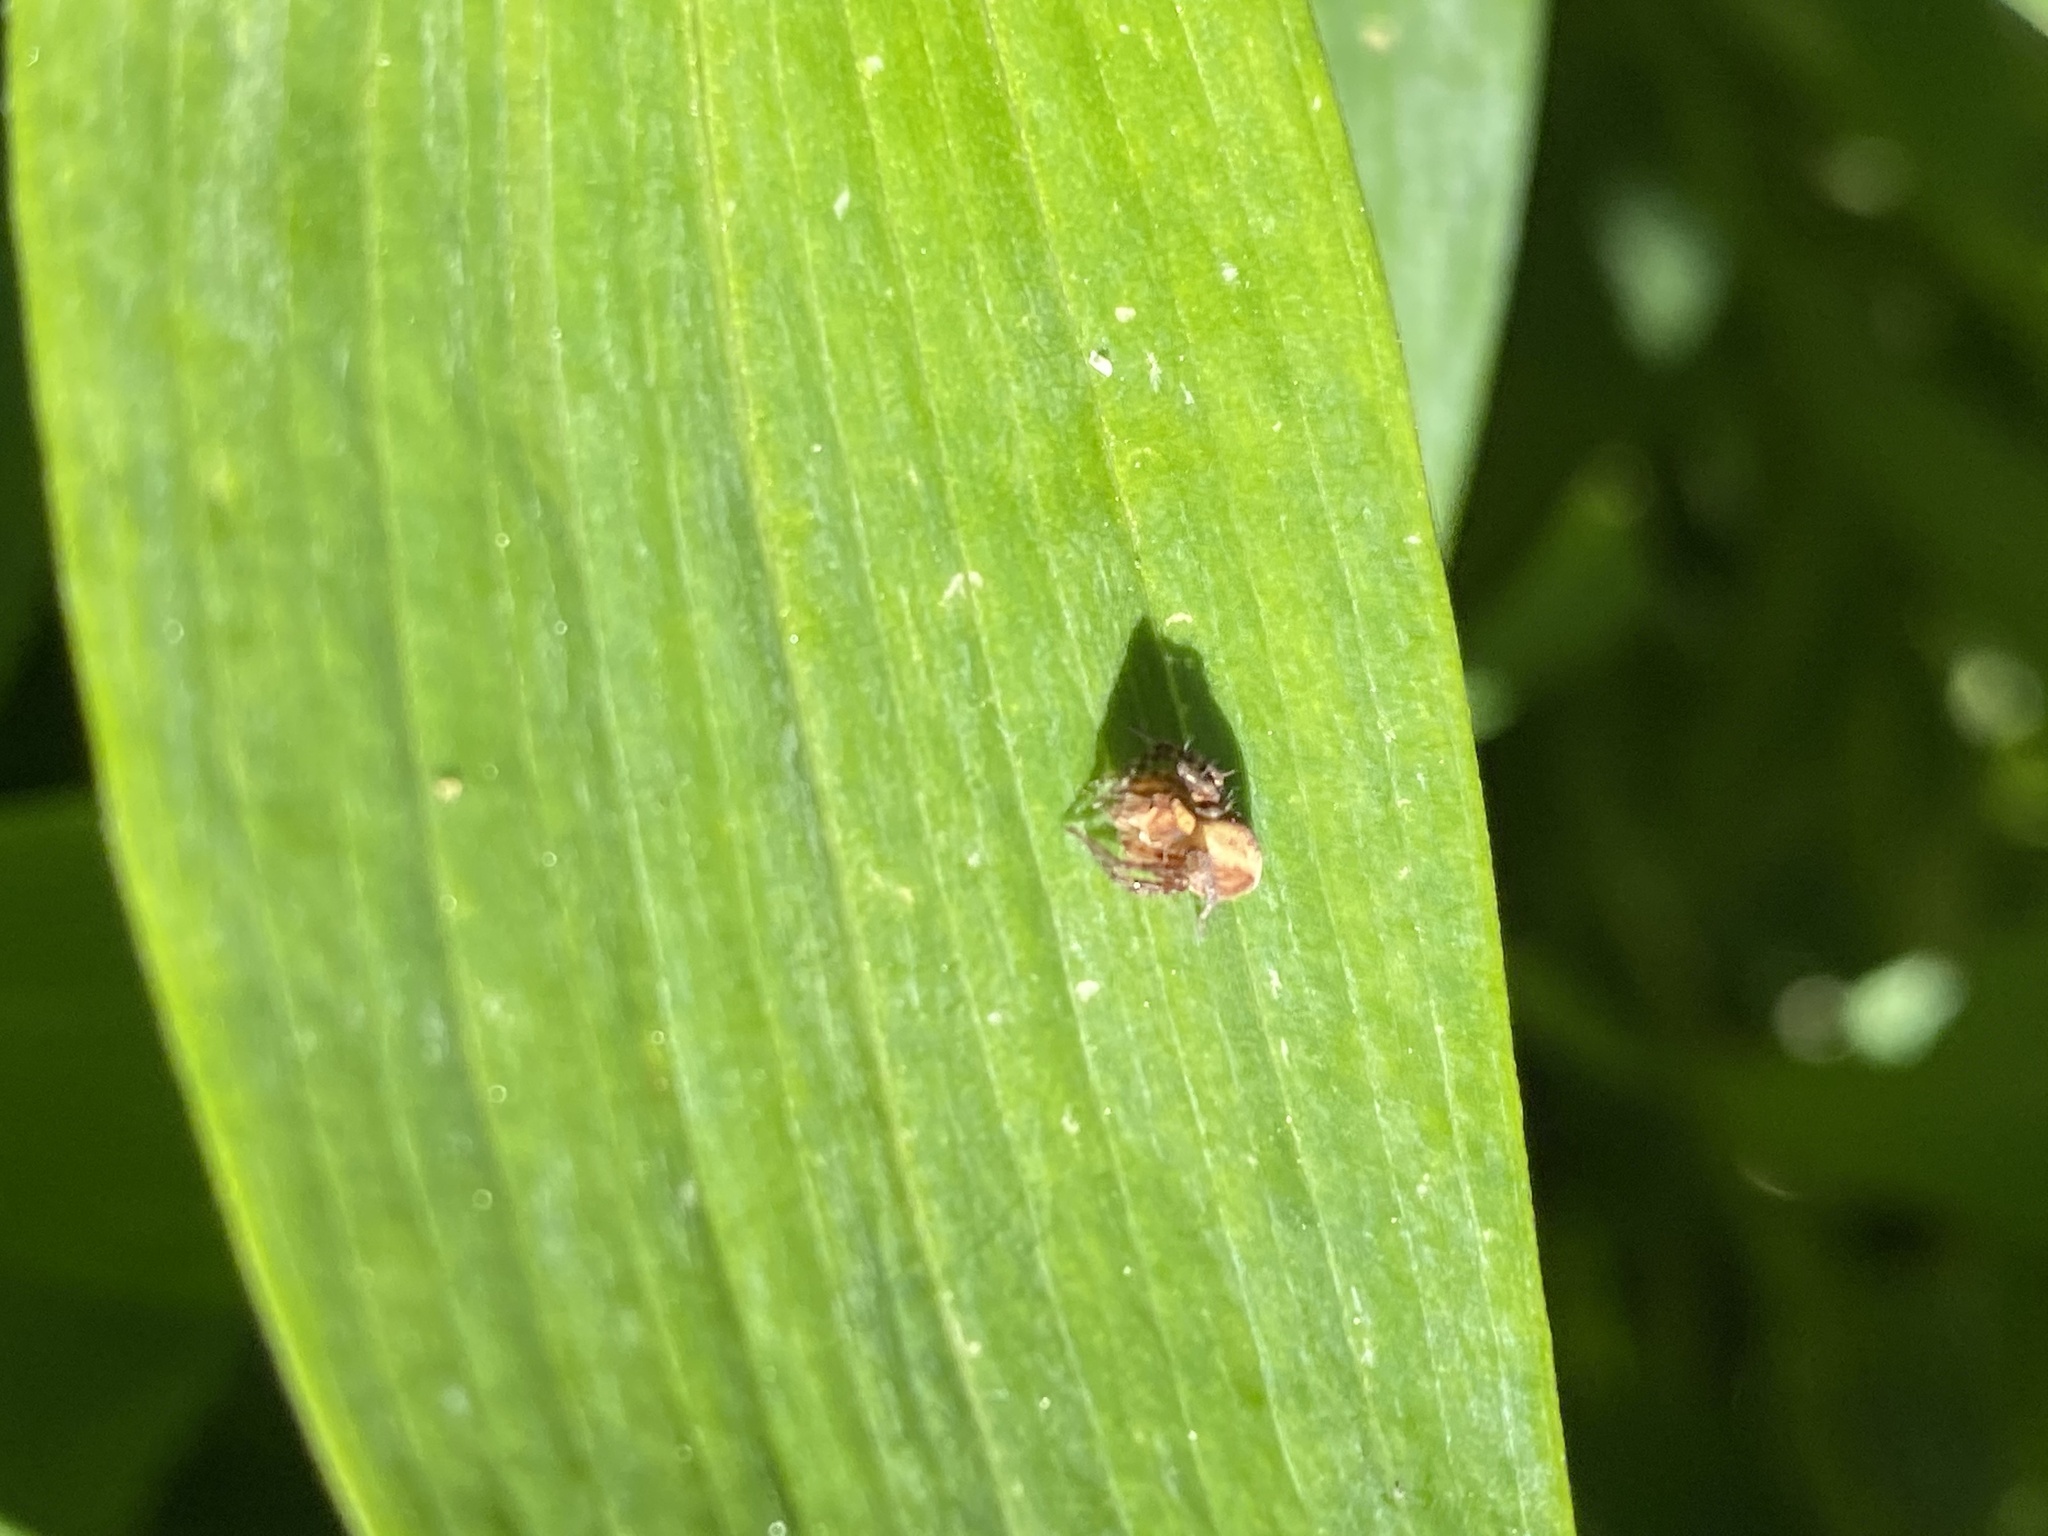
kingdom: Animalia
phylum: Arthropoda
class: Arachnida
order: Araneae
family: Oxyopidae
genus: Oxyopes
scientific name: Oxyopes scalaris
